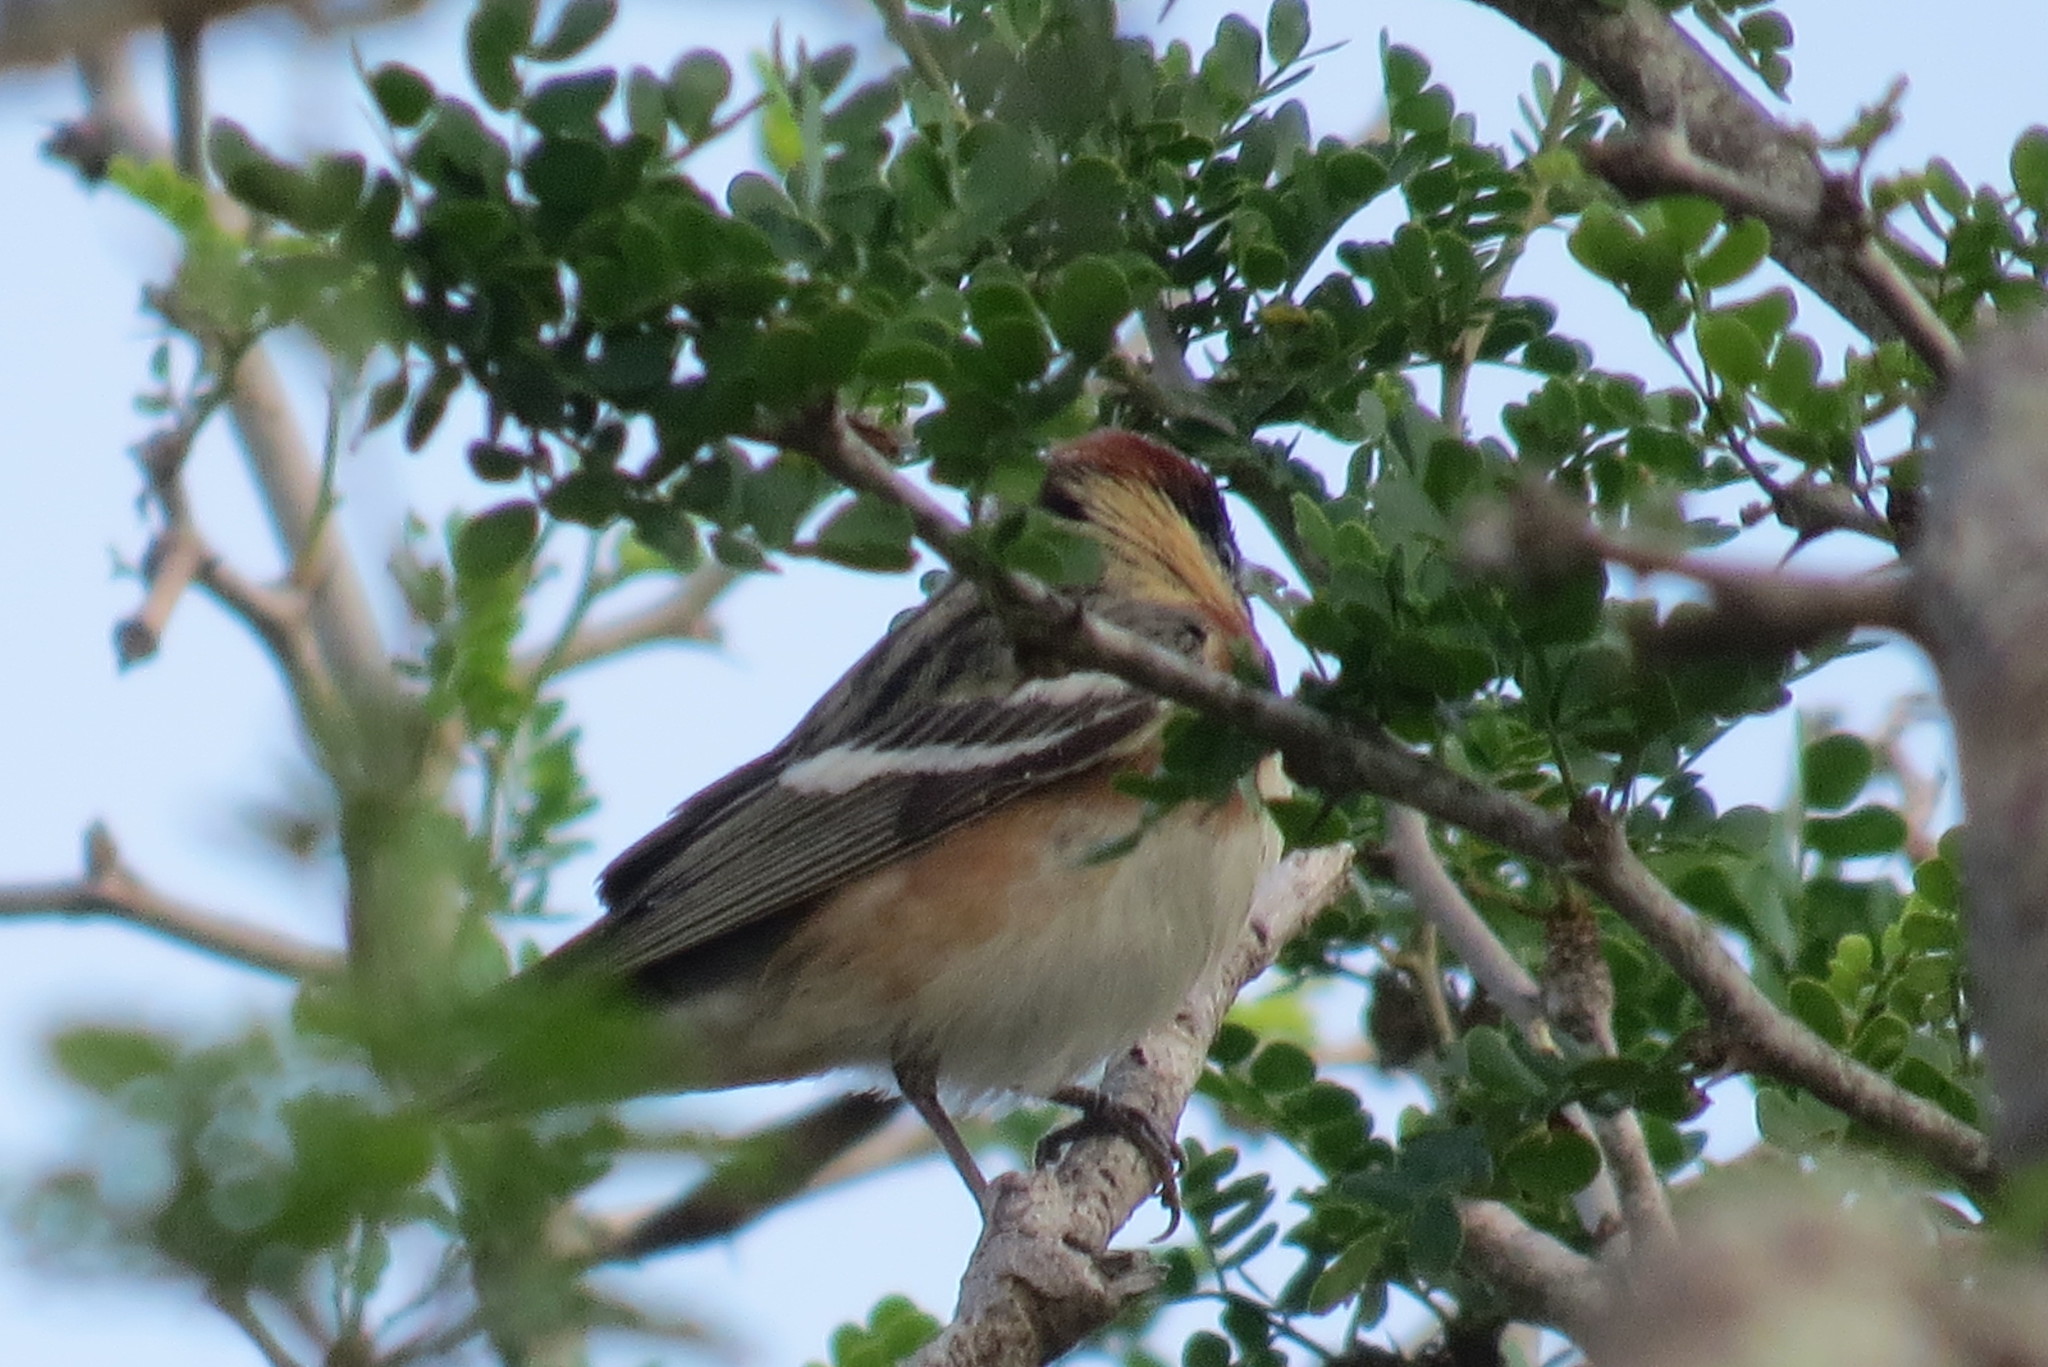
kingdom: Animalia
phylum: Chordata
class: Aves
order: Passeriformes
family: Parulidae
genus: Setophaga
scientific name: Setophaga castanea
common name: Bay-breasted warbler
